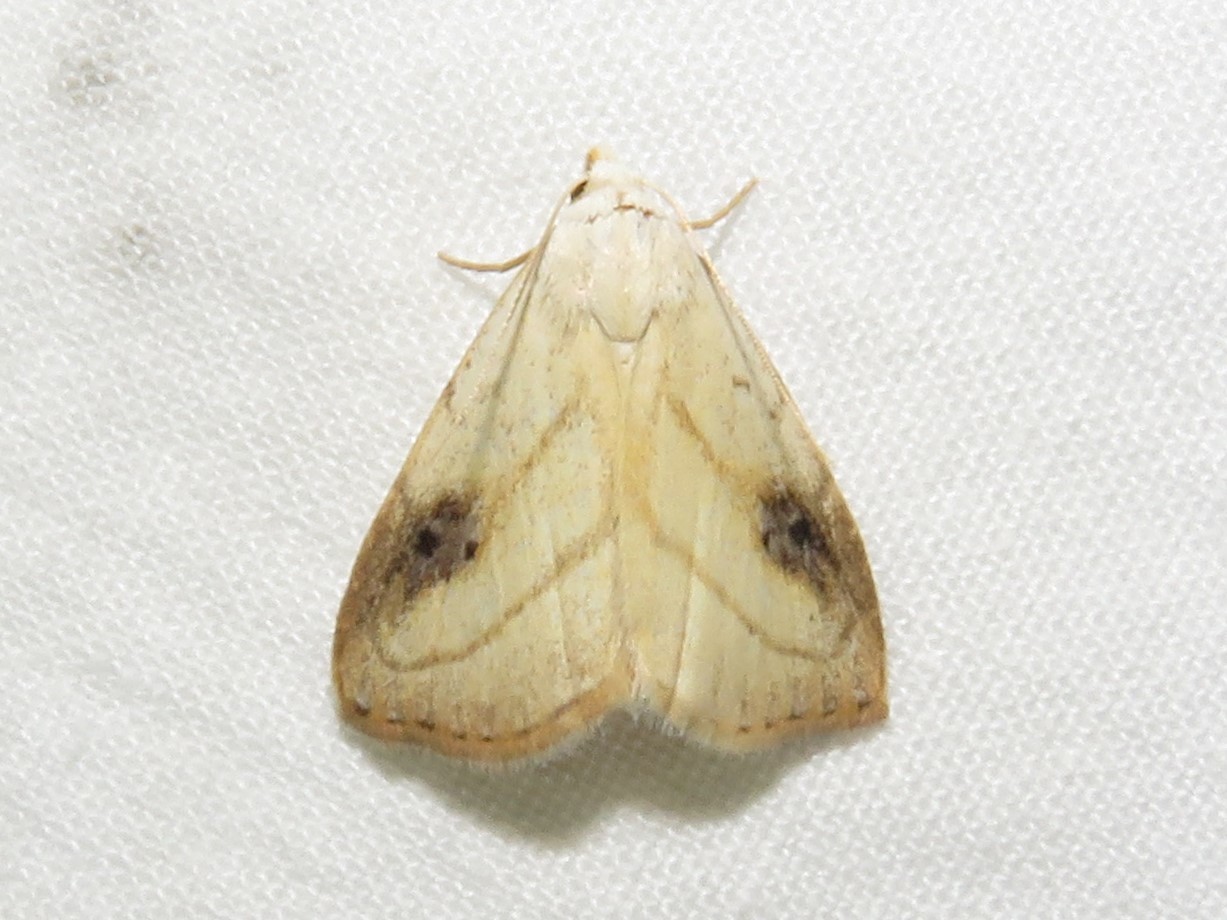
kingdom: Animalia
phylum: Arthropoda
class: Insecta
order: Lepidoptera
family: Erebidae
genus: Rivula
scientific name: Rivula propinqualis
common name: Spotted grass moth
